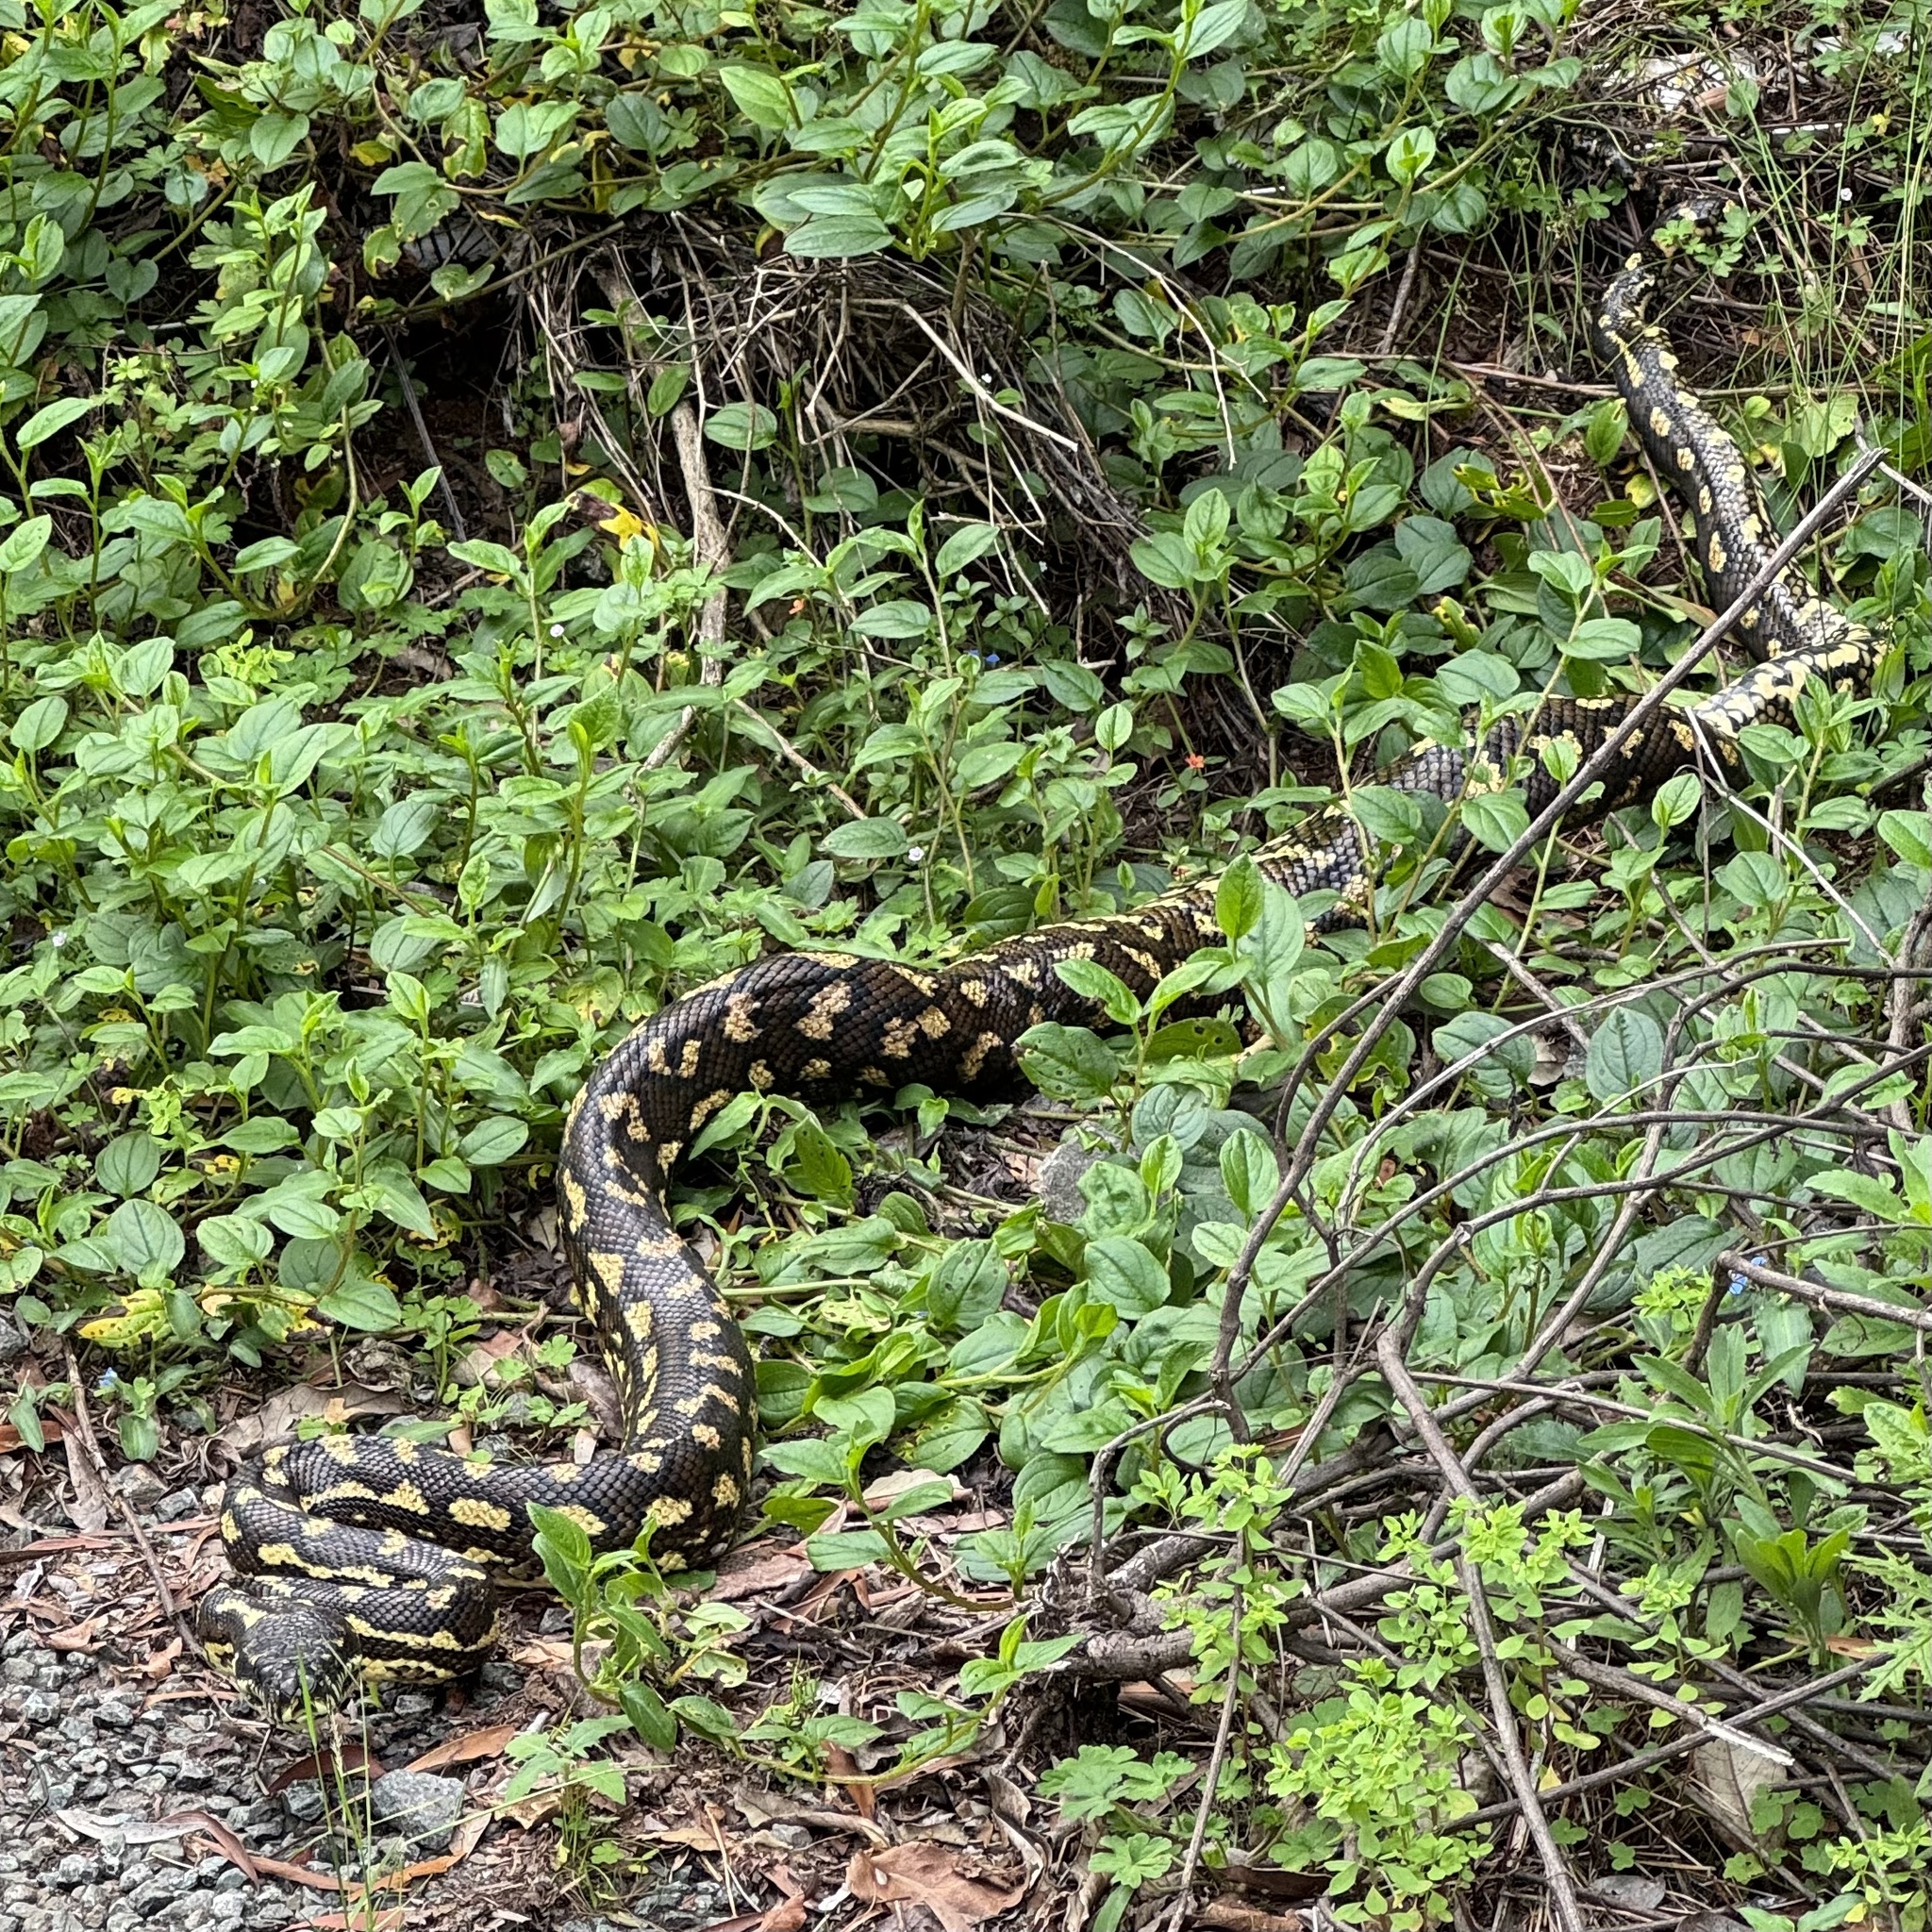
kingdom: Animalia
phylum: Chordata
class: Squamata
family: Pythonidae
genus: Morelia
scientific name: Morelia spilota
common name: Carpet python
